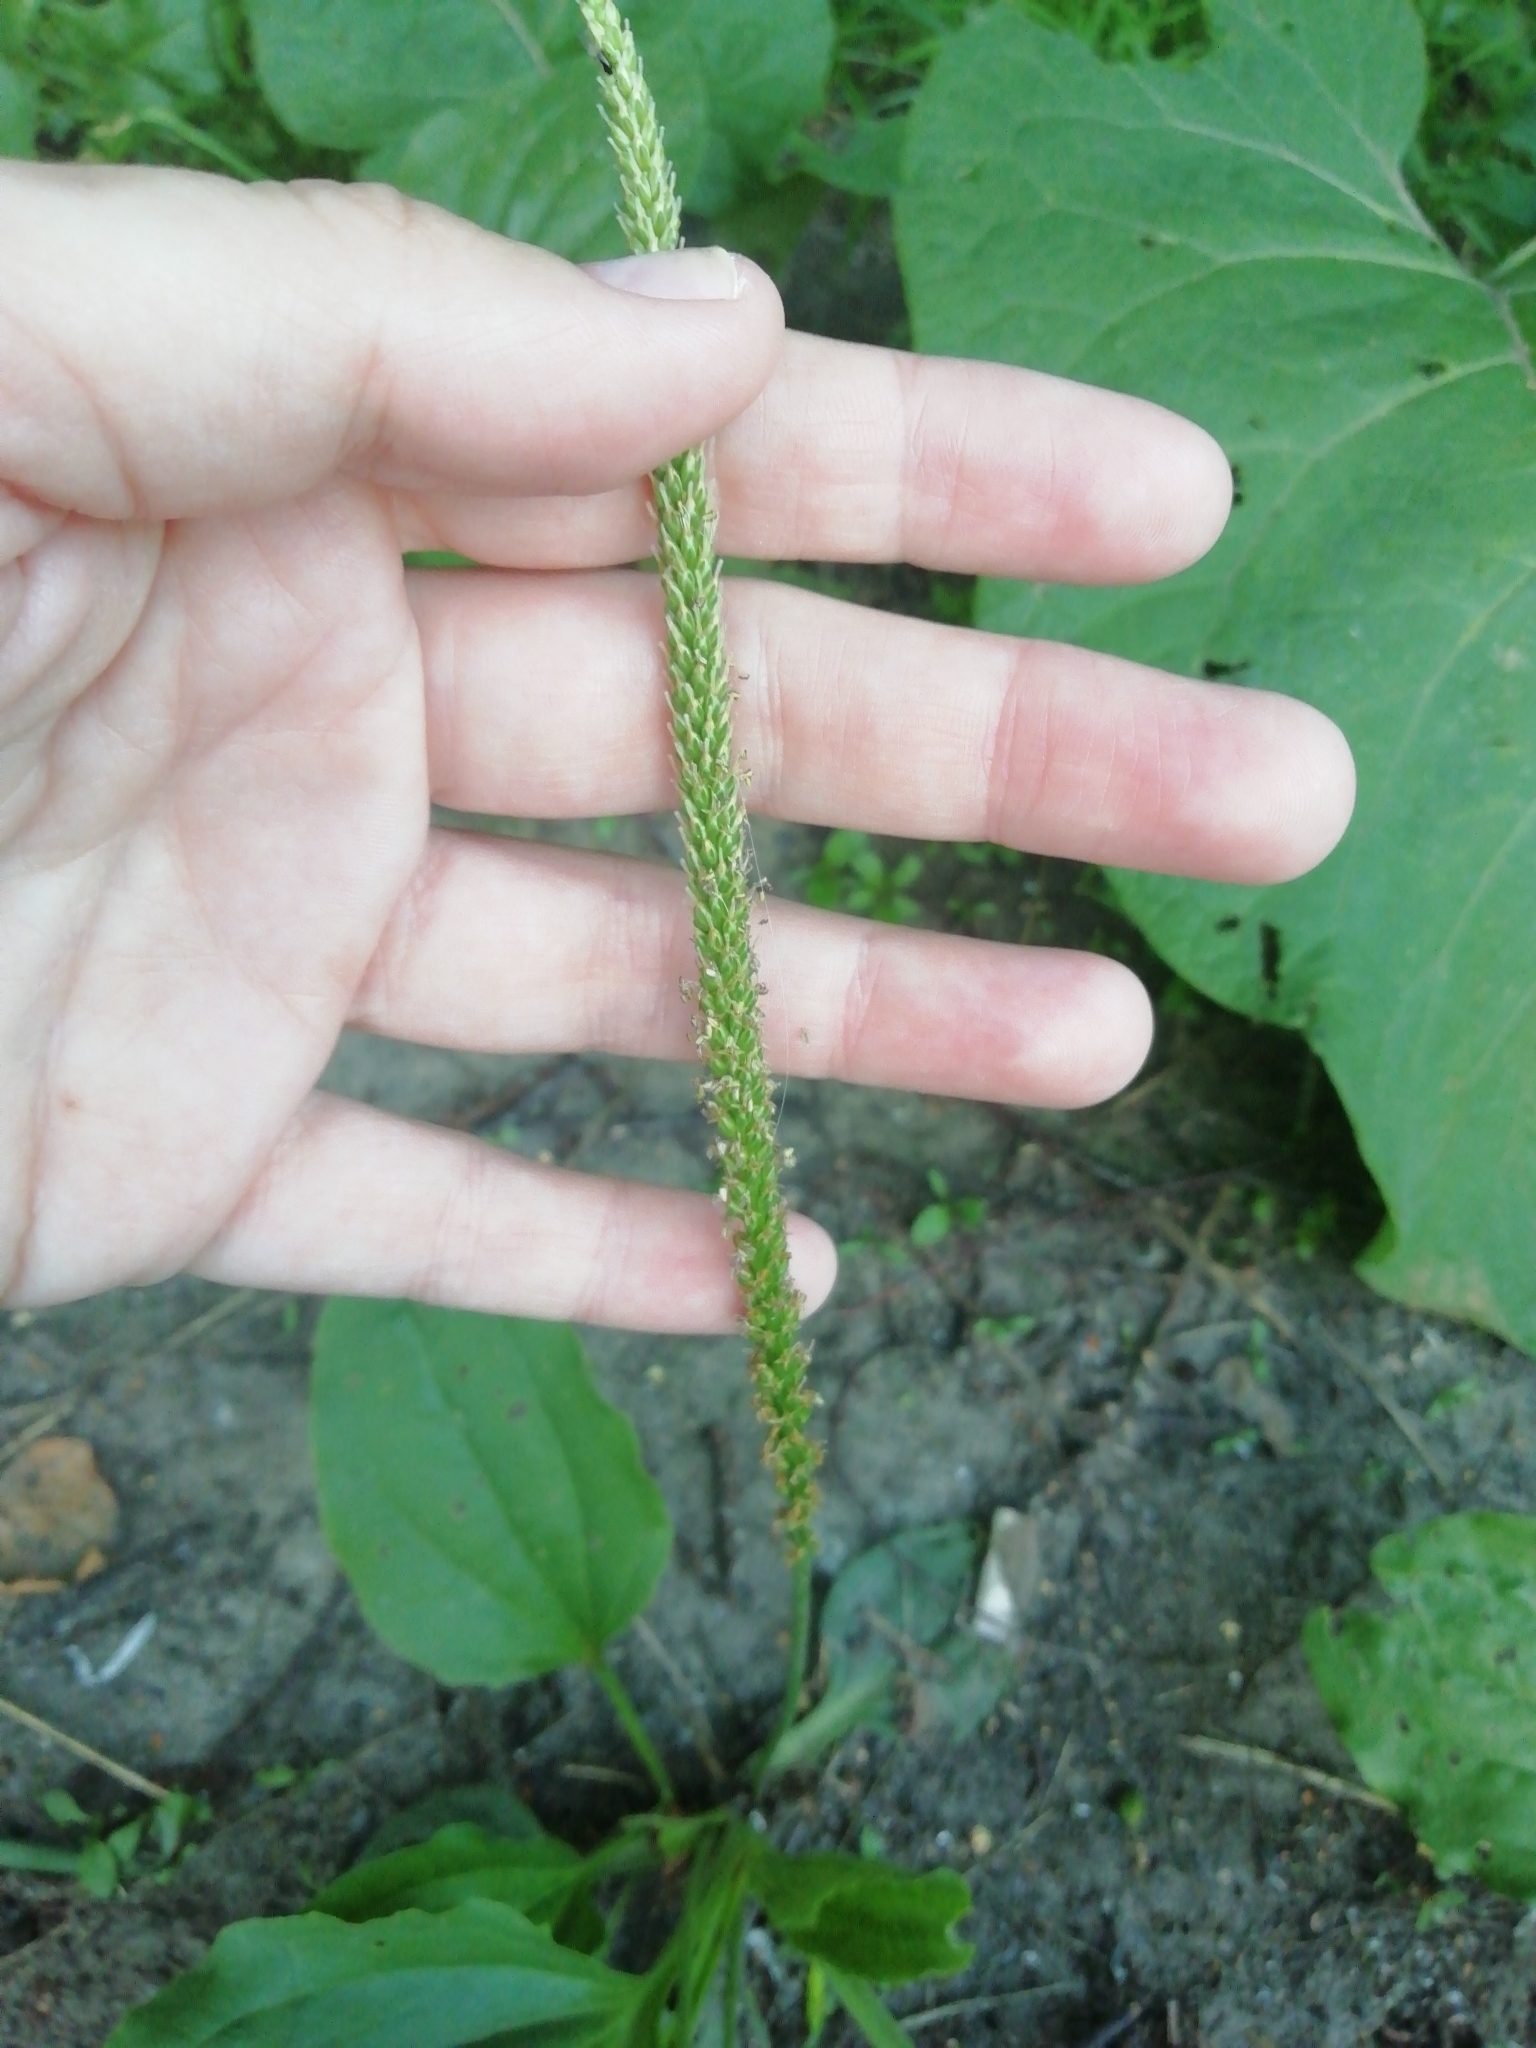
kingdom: Plantae
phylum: Tracheophyta
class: Magnoliopsida
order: Lamiales
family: Plantaginaceae
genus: Plantago
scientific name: Plantago major
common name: Common plantain
